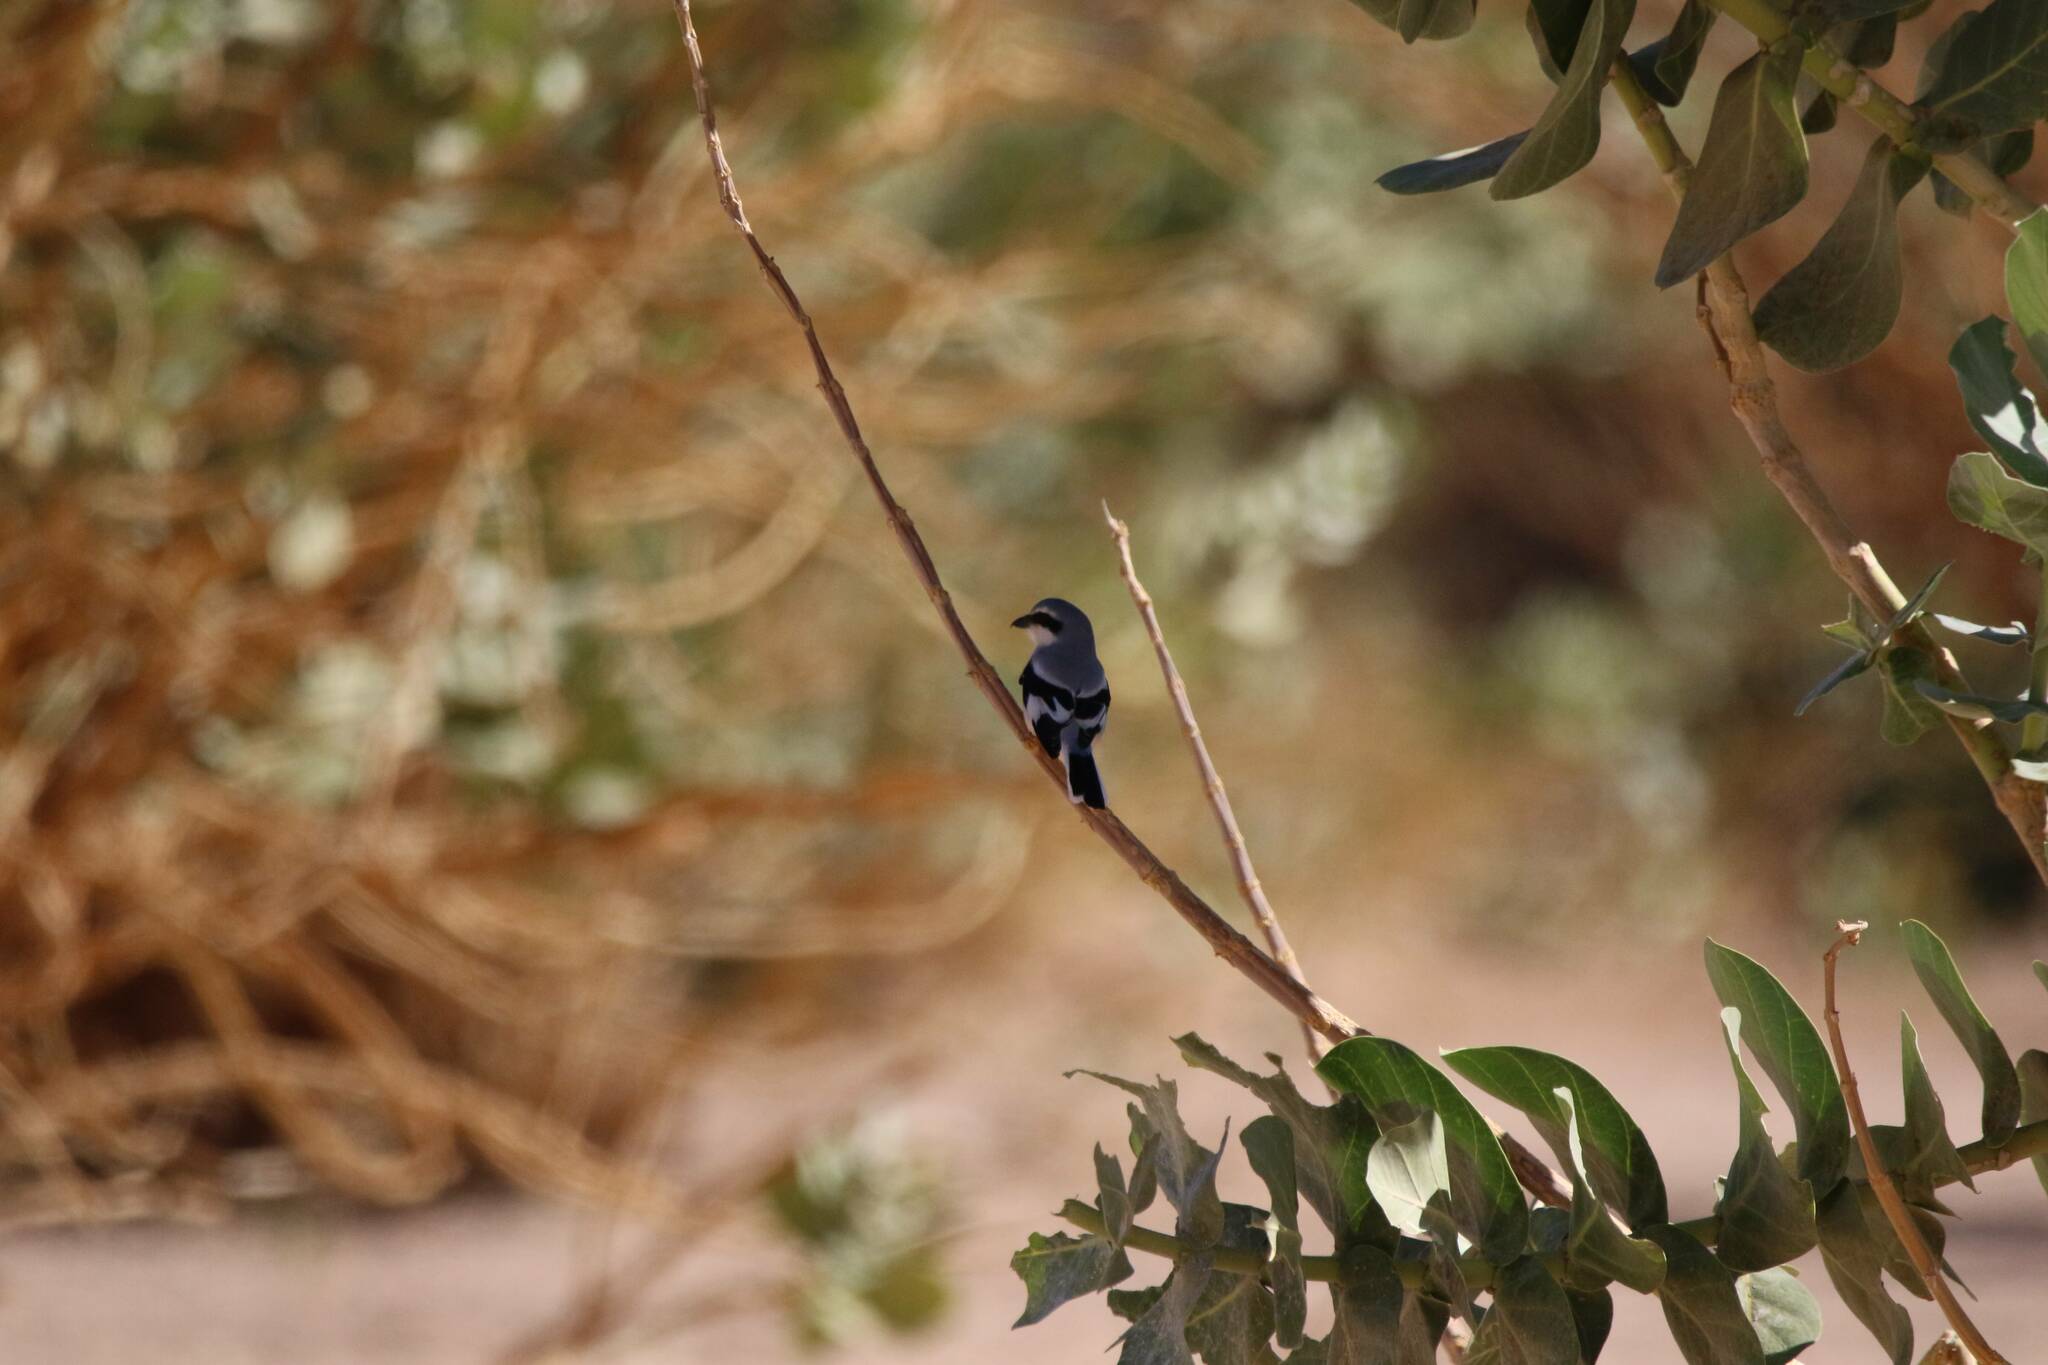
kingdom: Animalia
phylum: Chordata
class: Aves
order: Passeriformes
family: Laniidae
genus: Lanius
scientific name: Lanius excubitor
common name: Great grey shrike
